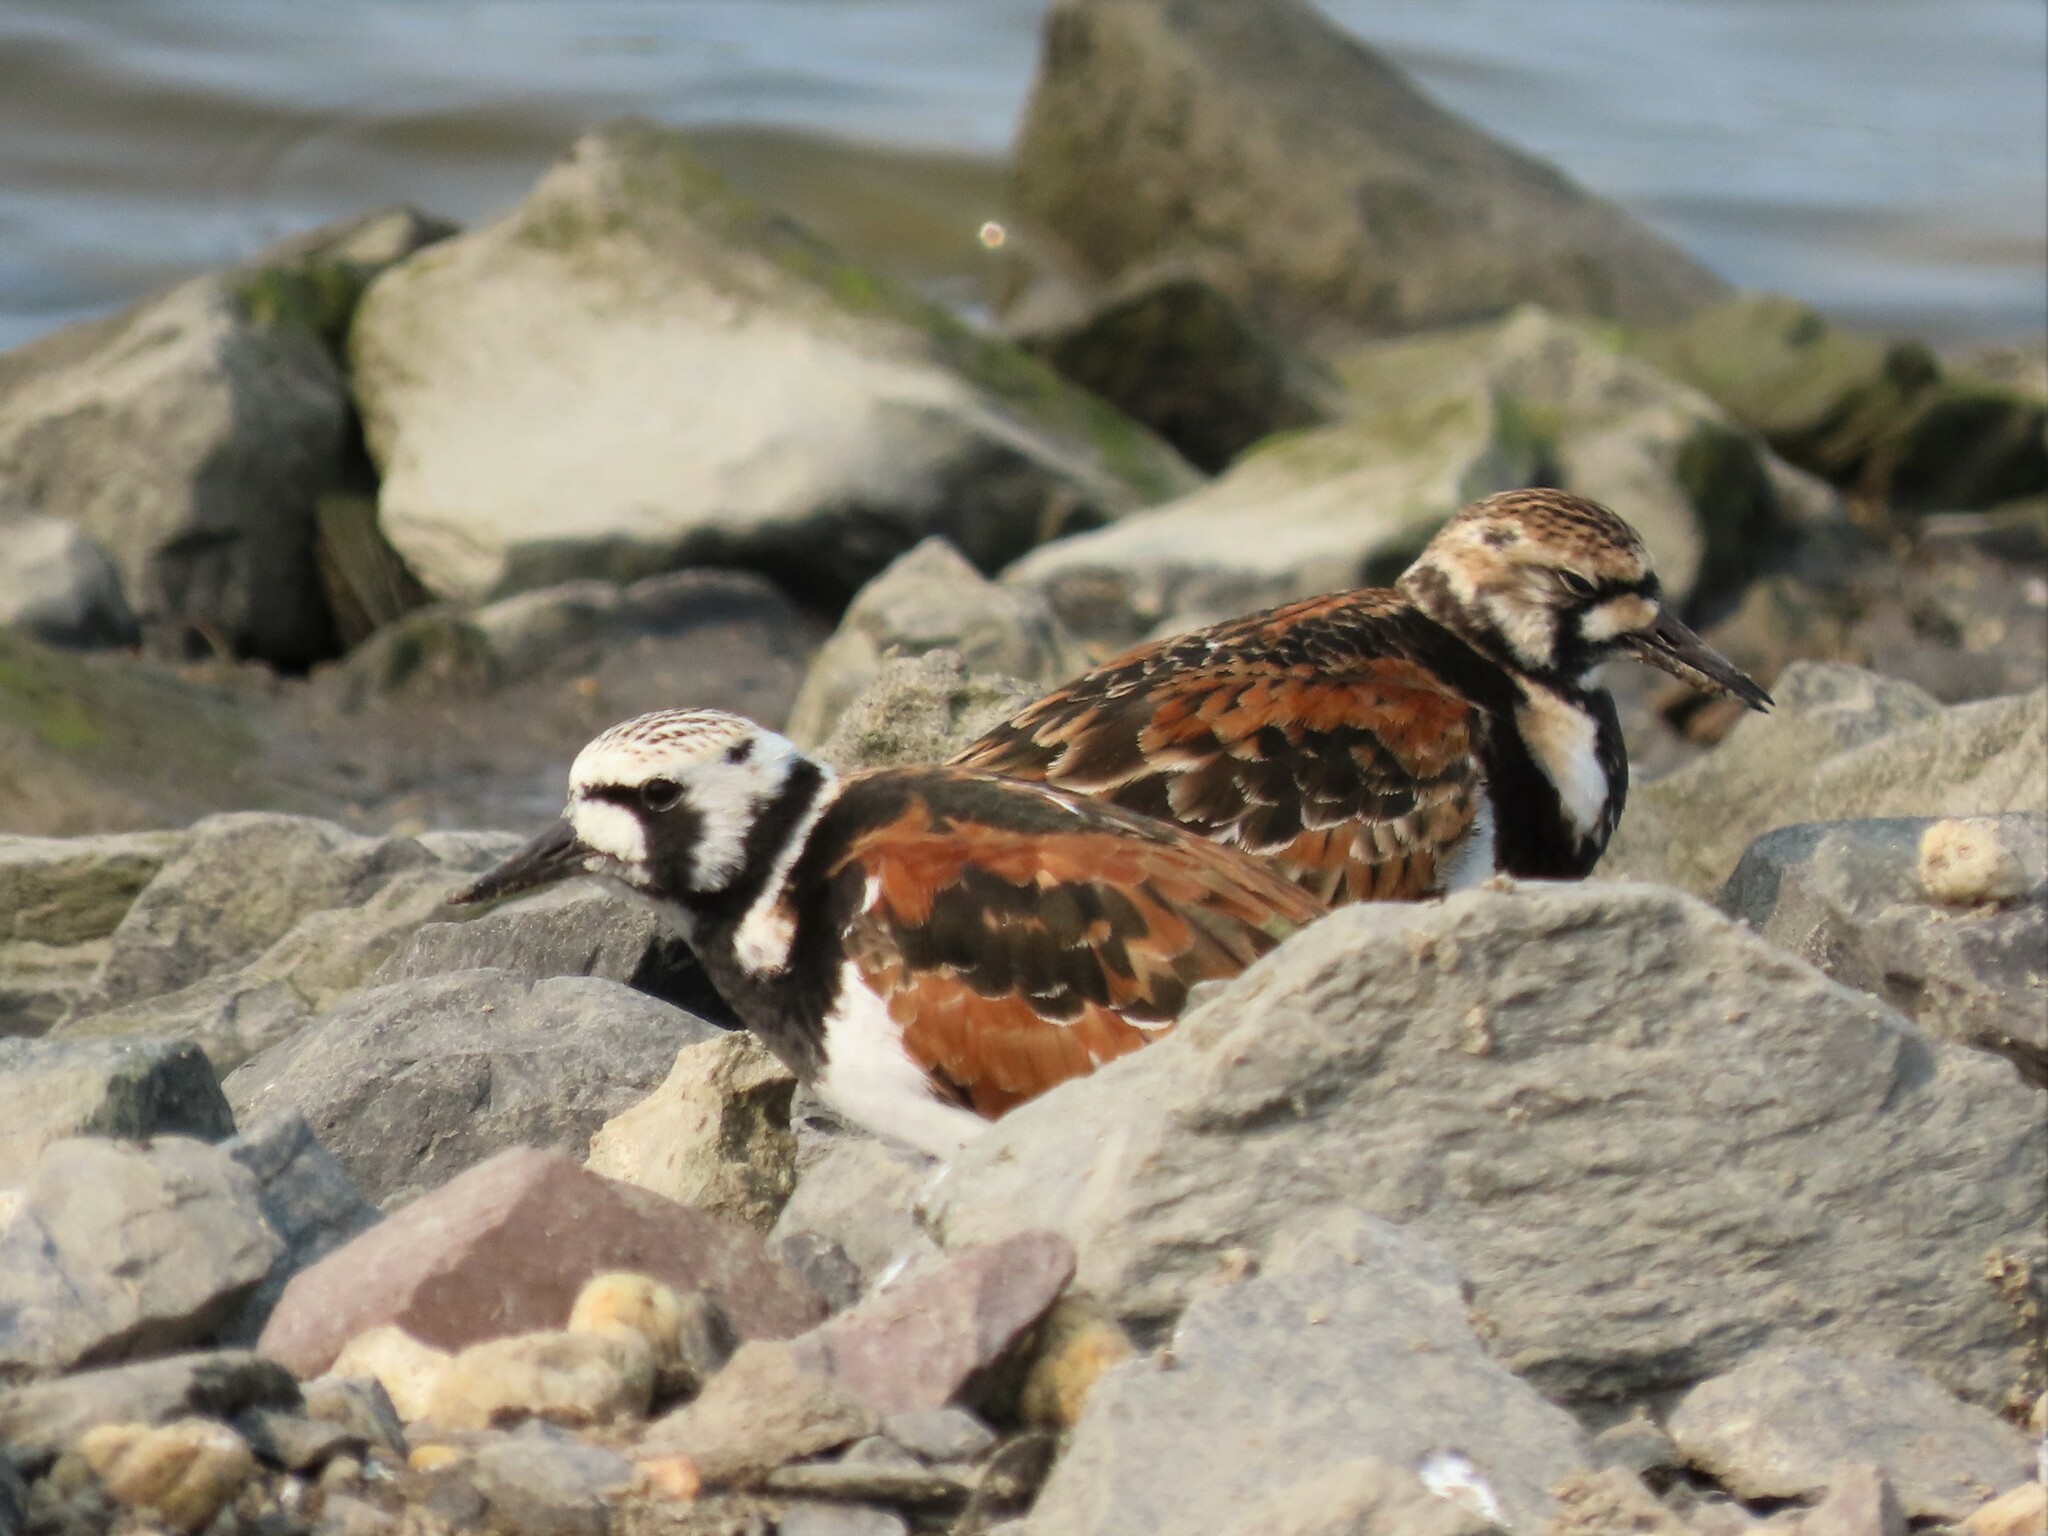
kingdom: Animalia
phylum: Chordata
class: Aves
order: Charadriiformes
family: Scolopacidae
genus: Arenaria
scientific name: Arenaria interpres
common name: Ruddy turnstone
